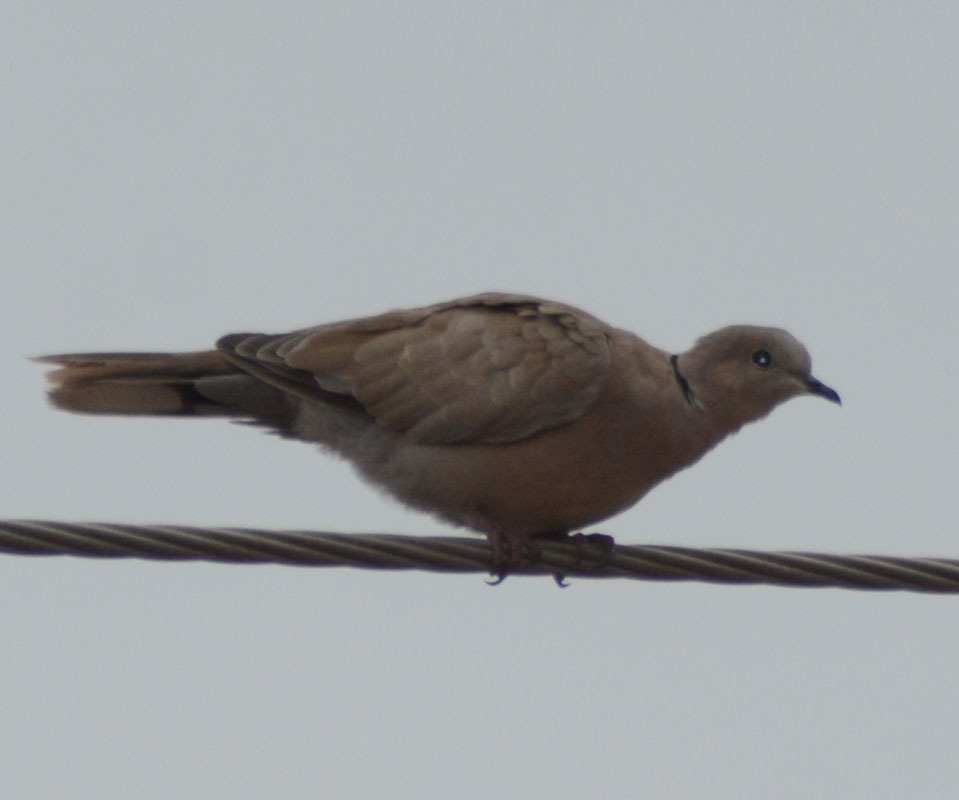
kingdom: Animalia
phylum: Chordata
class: Aves
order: Columbiformes
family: Columbidae
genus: Streptopelia
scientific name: Streptopelia decaocto
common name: Eurasian collared dove
